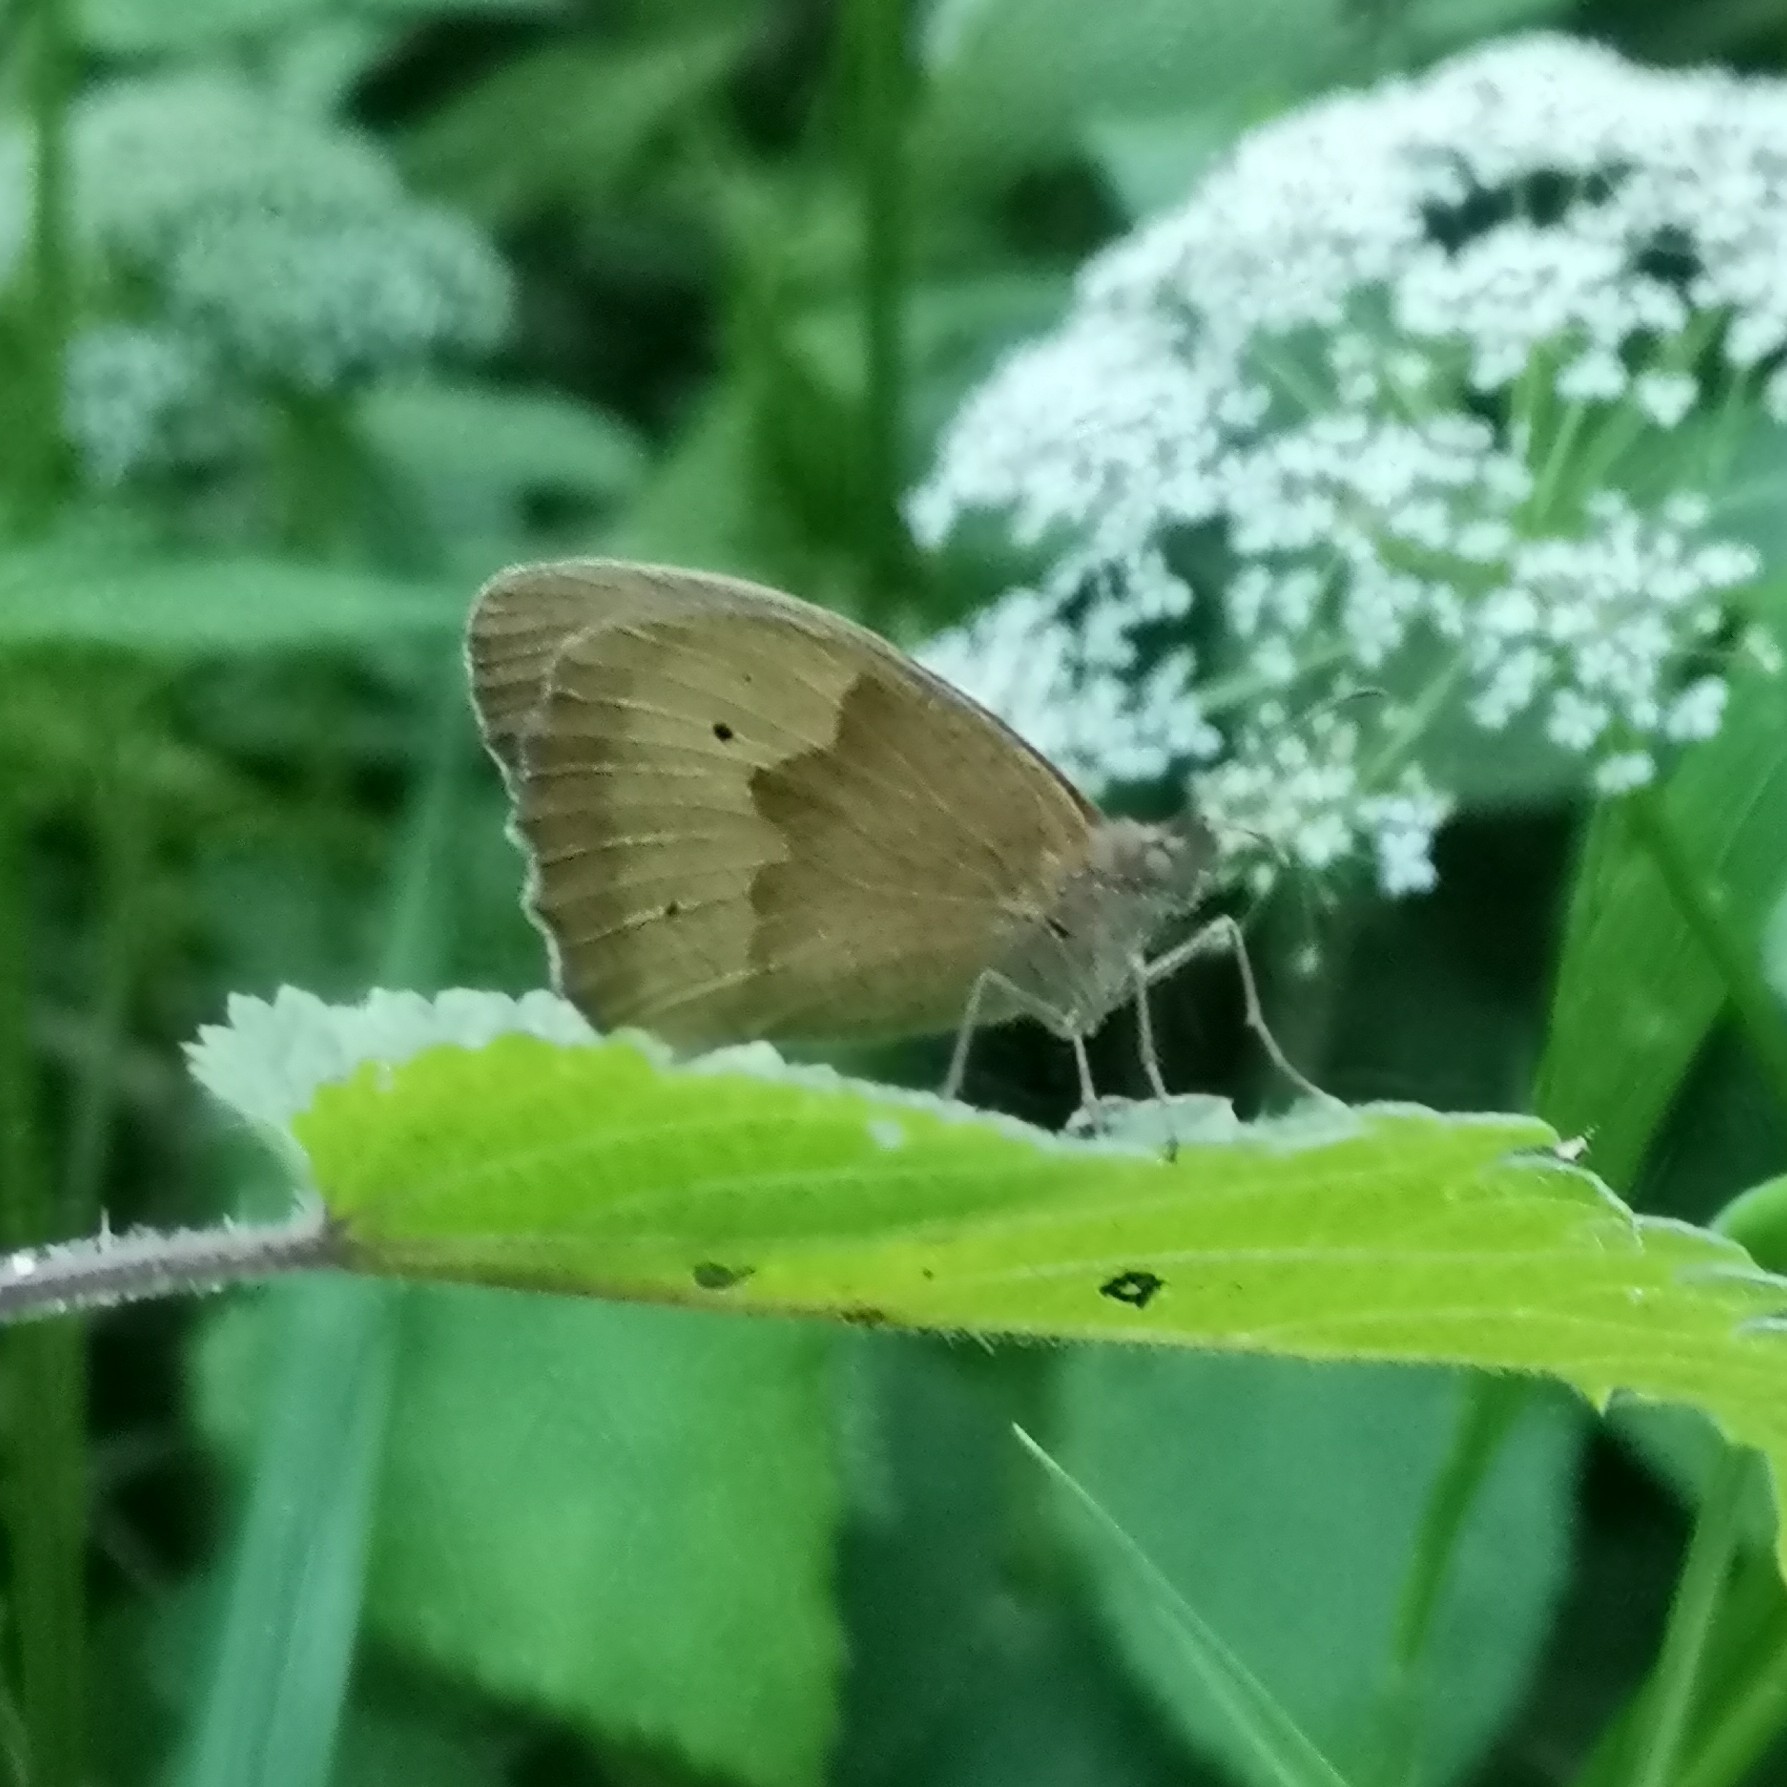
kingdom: Animalia
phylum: Arthropoda
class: Insecta
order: Lepidoptera
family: Nymphalidae
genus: Maniola
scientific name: Maniola jurtina
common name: Meadow brown
